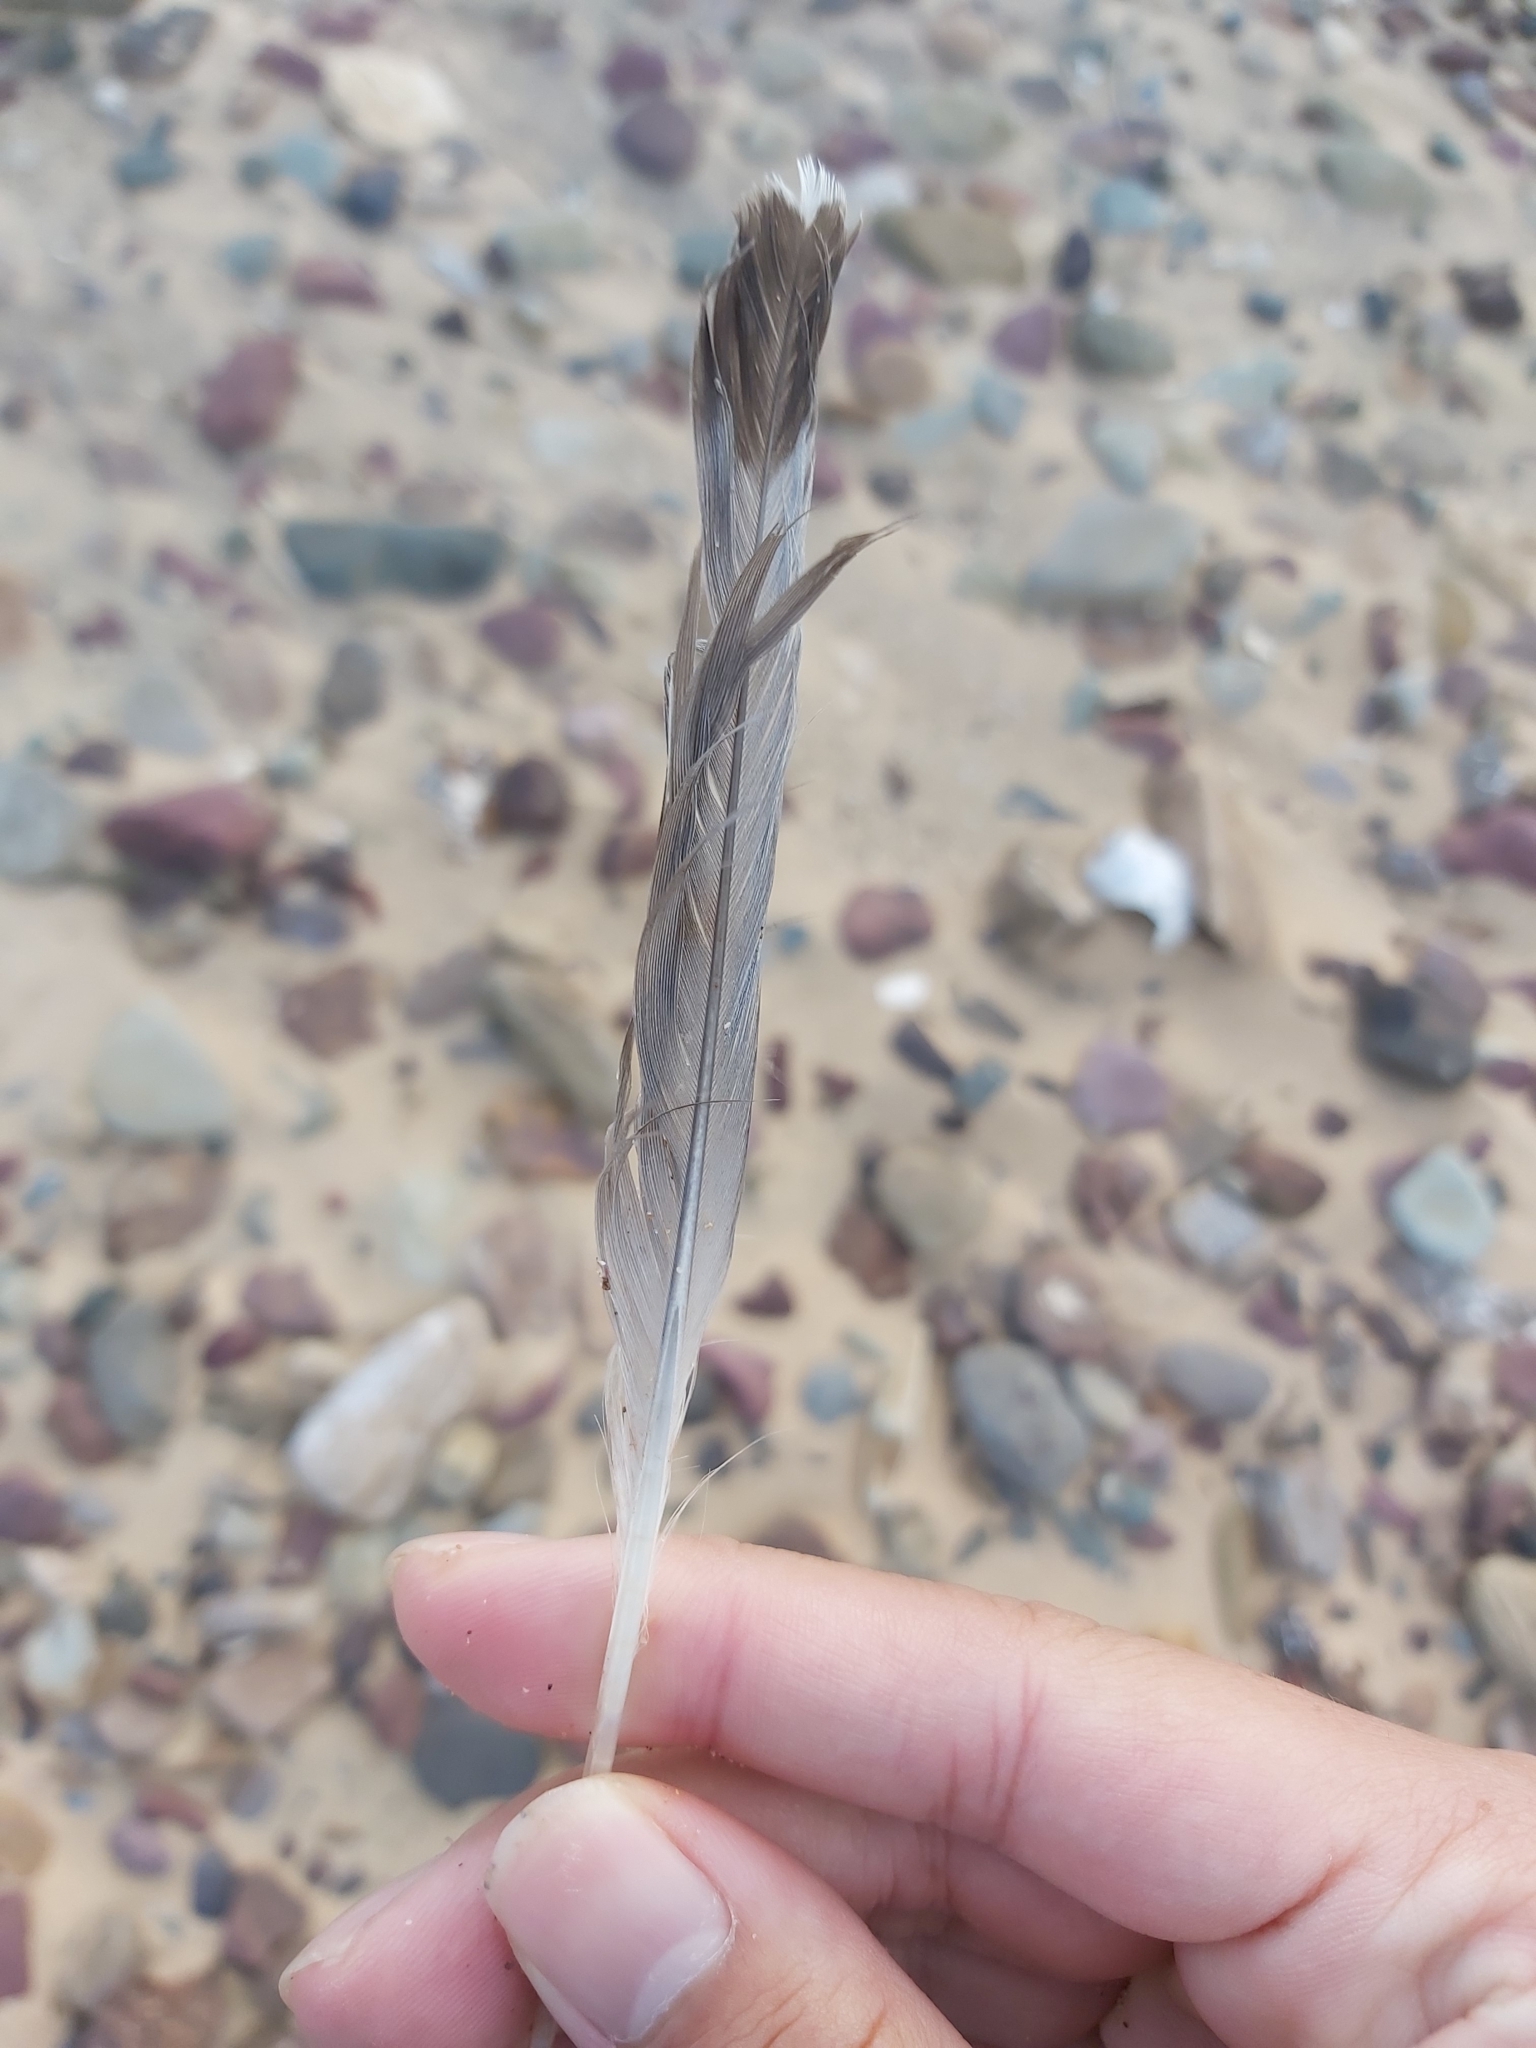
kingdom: Animalia
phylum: Chordata
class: Aves
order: Charadriiformes
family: Laridae
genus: Chroicocephalus
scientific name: Chroicocephalus novaehollandiae
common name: Silver gull
